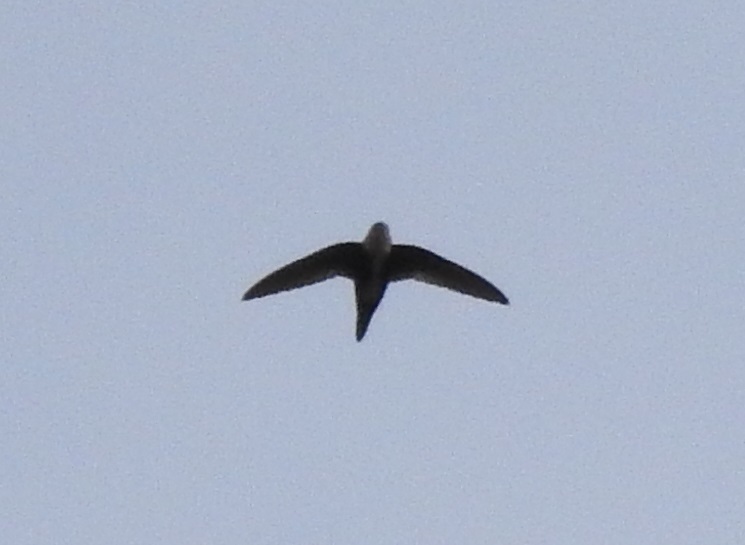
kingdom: Animalia
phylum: Chordata
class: Aves
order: Apodiformes
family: Apodidae
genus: Aeronautes
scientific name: Aeronautes saxatalis
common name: White-throated swift
